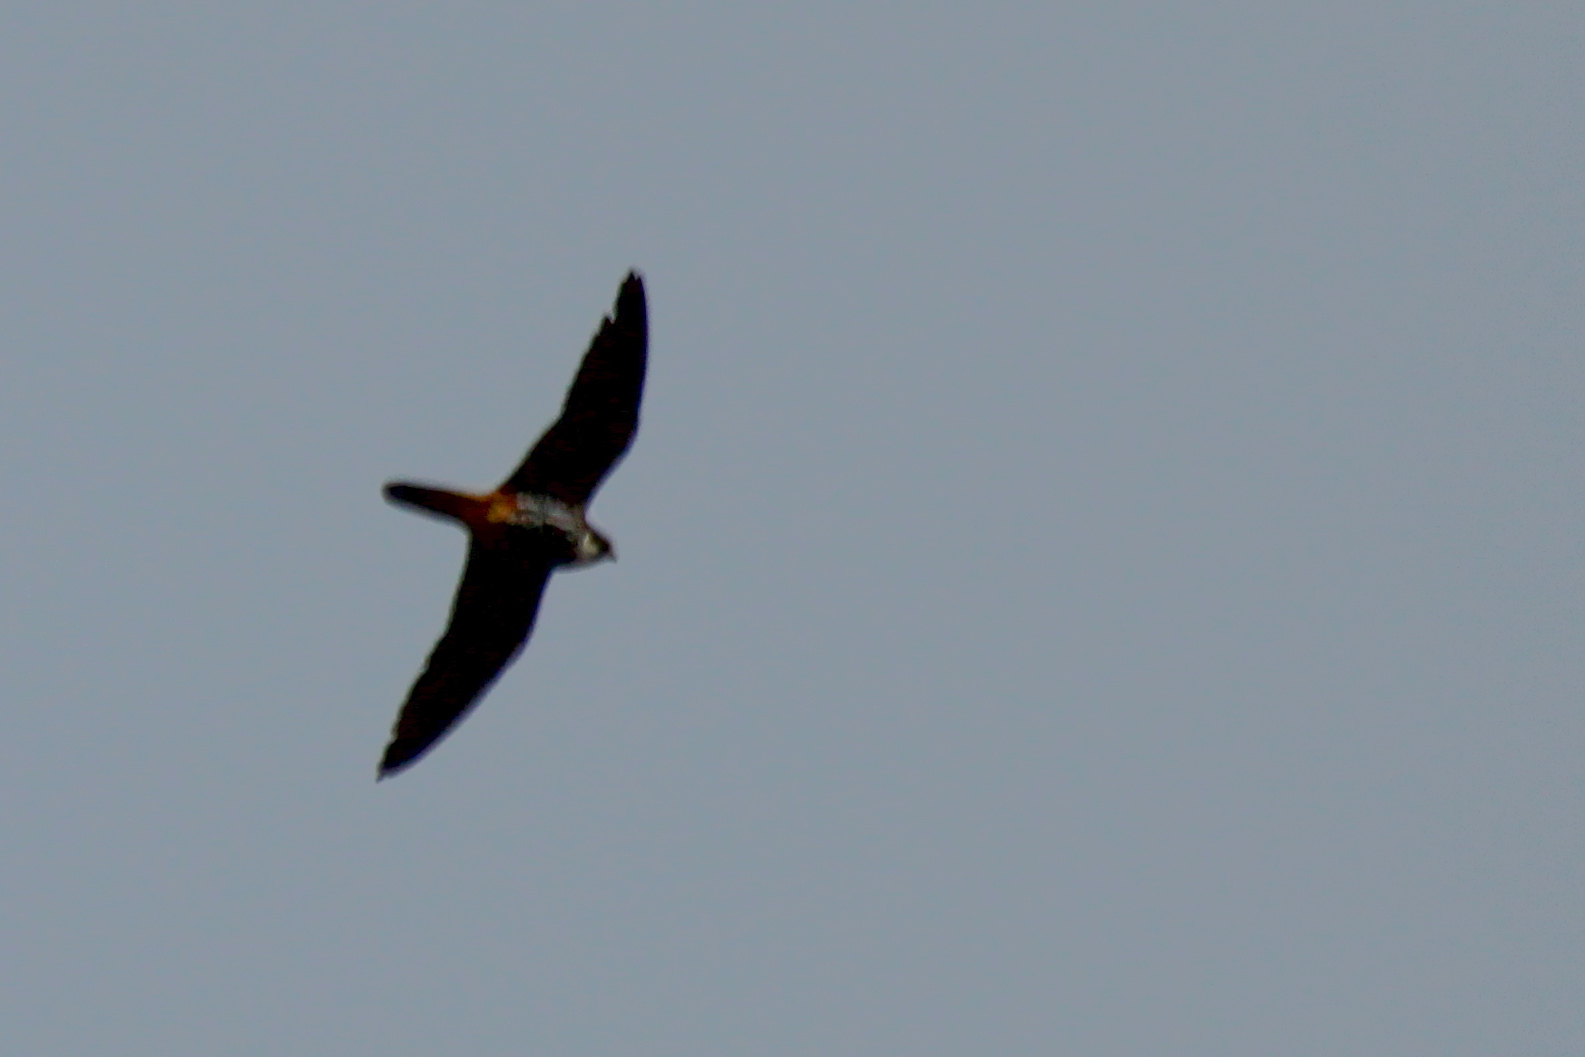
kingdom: Animalia
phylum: Chordata
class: Aves
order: Falconiformes
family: Falconidae
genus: Falco
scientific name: Falco subbuteo
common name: Eurasian hobby
